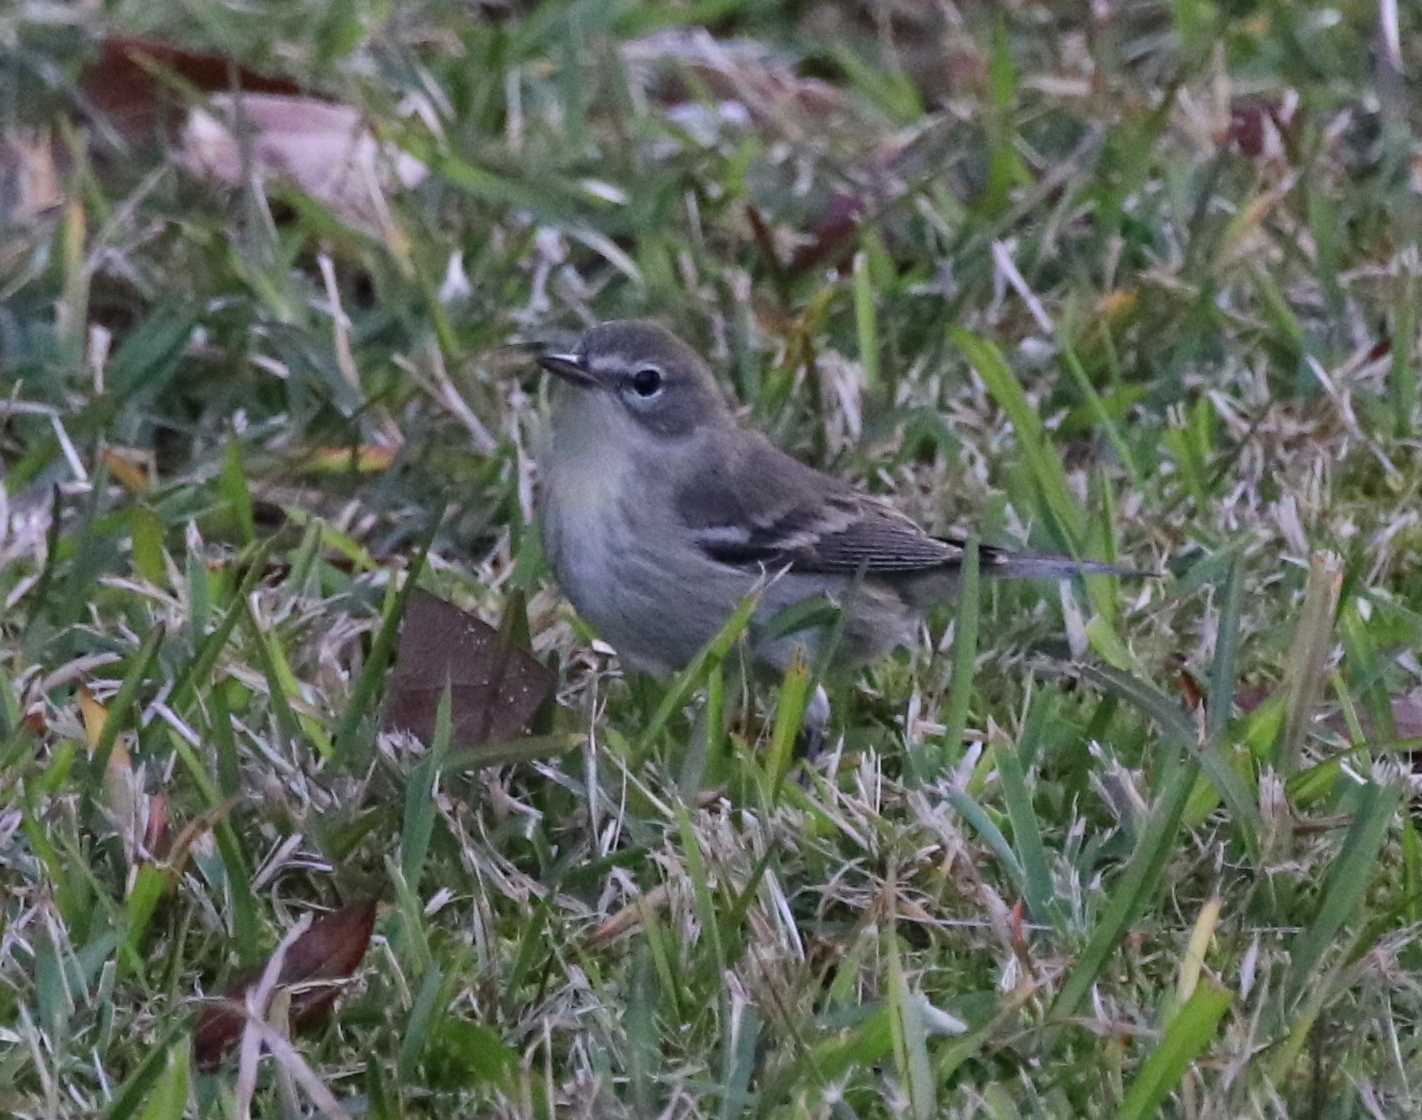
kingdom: Animalia
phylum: Chordata
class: Aves
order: Passeriformes
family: Parulidae
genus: Setophaga
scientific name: Setophaga pinus
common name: Pine warbler
